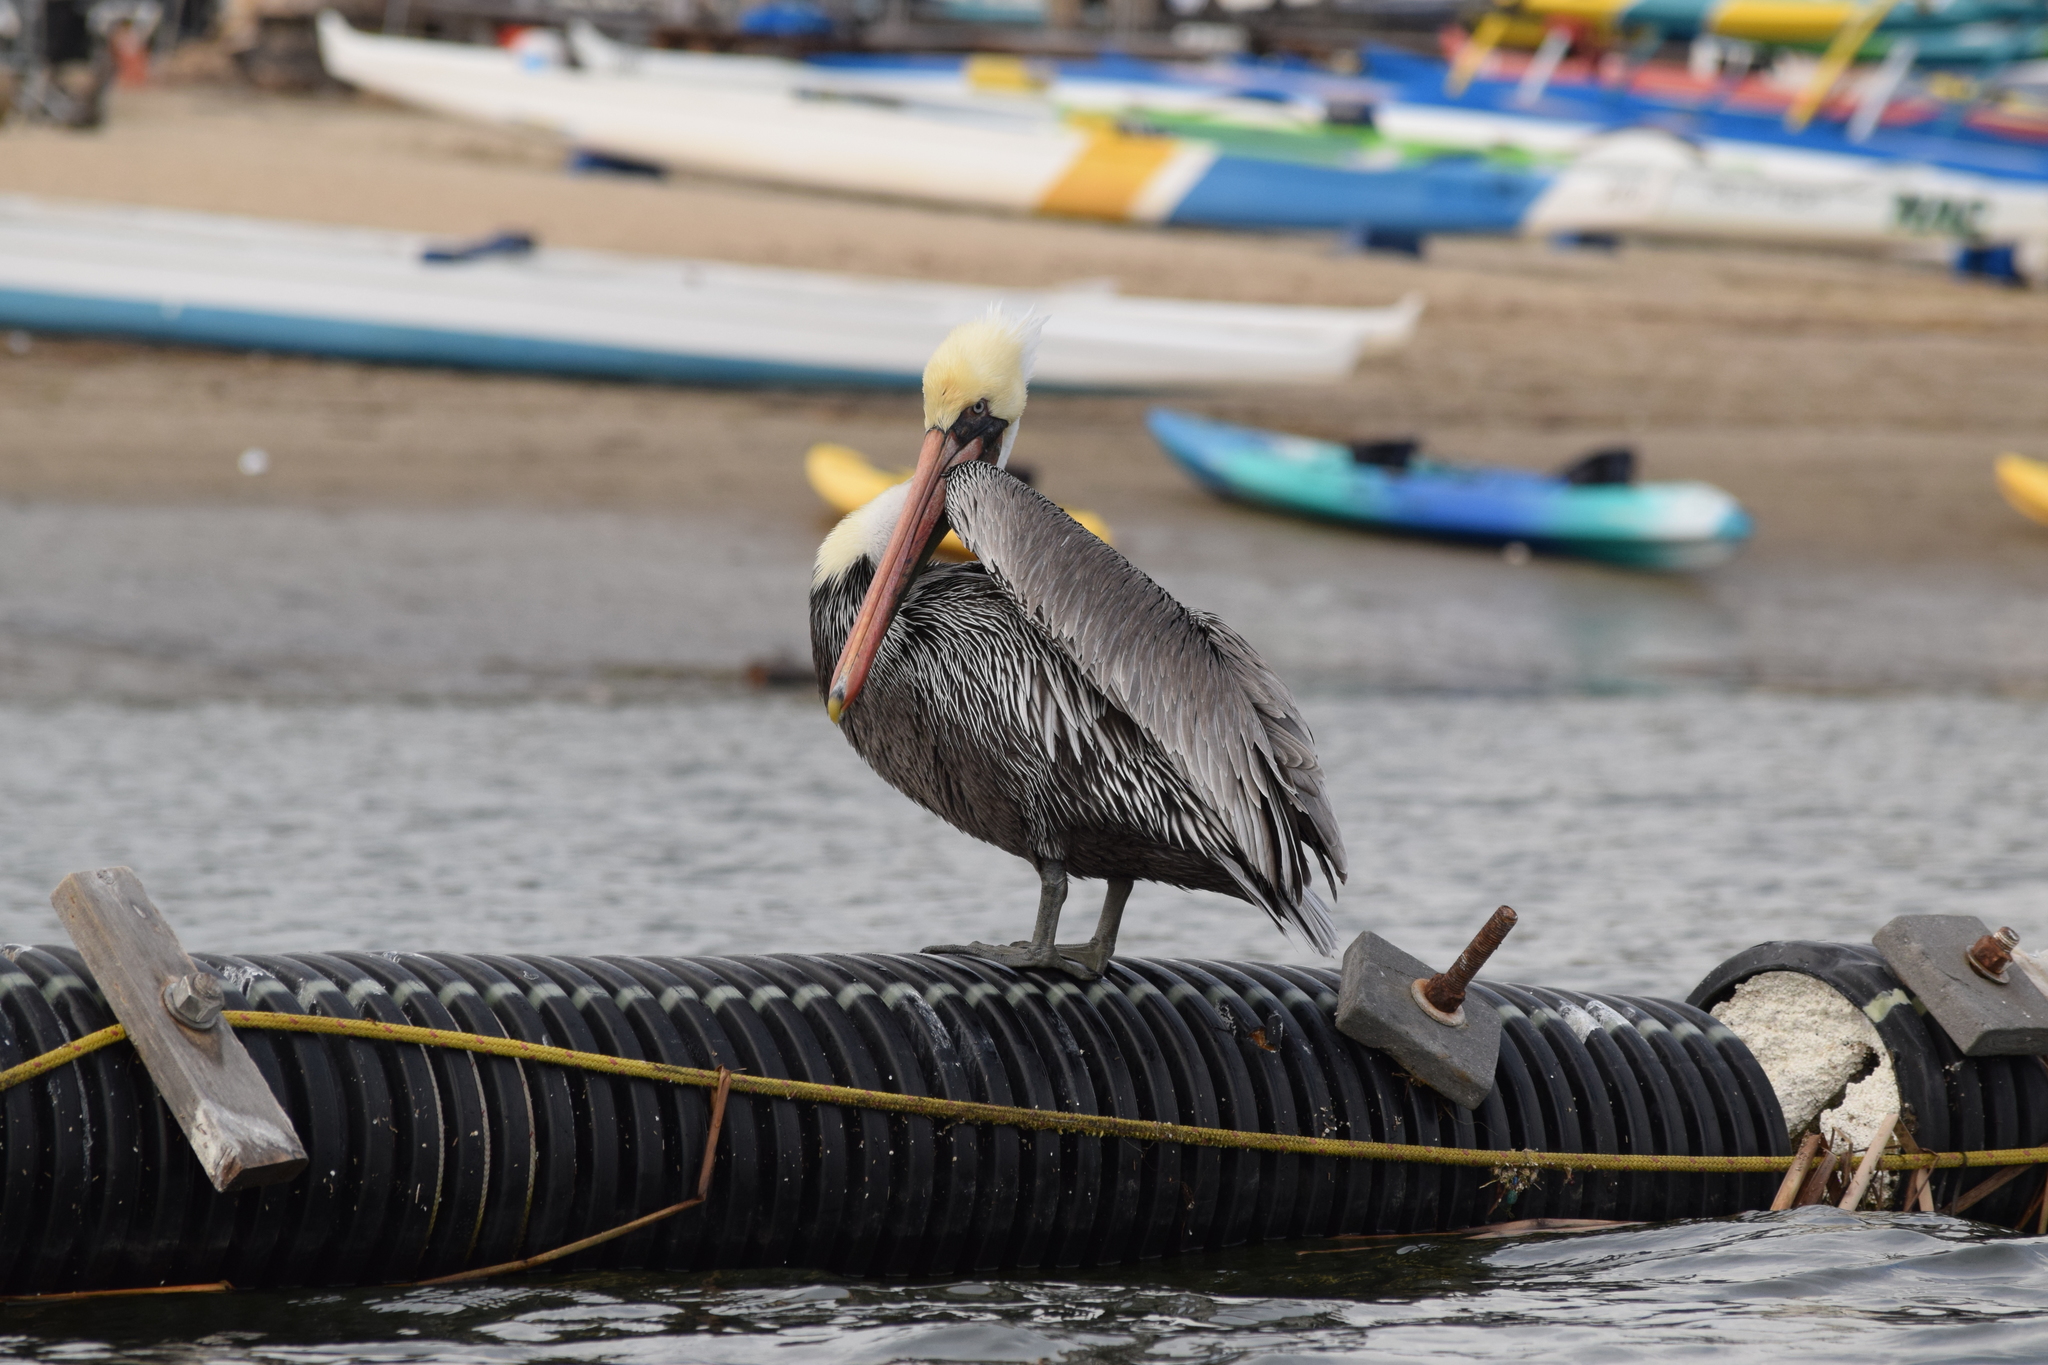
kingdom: Animalia
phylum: Chordata
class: Aves
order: Pelecaniformes
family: Pelecanidae
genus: Pelecanus
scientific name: Pelecanus occidentalis
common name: Brown pelican
